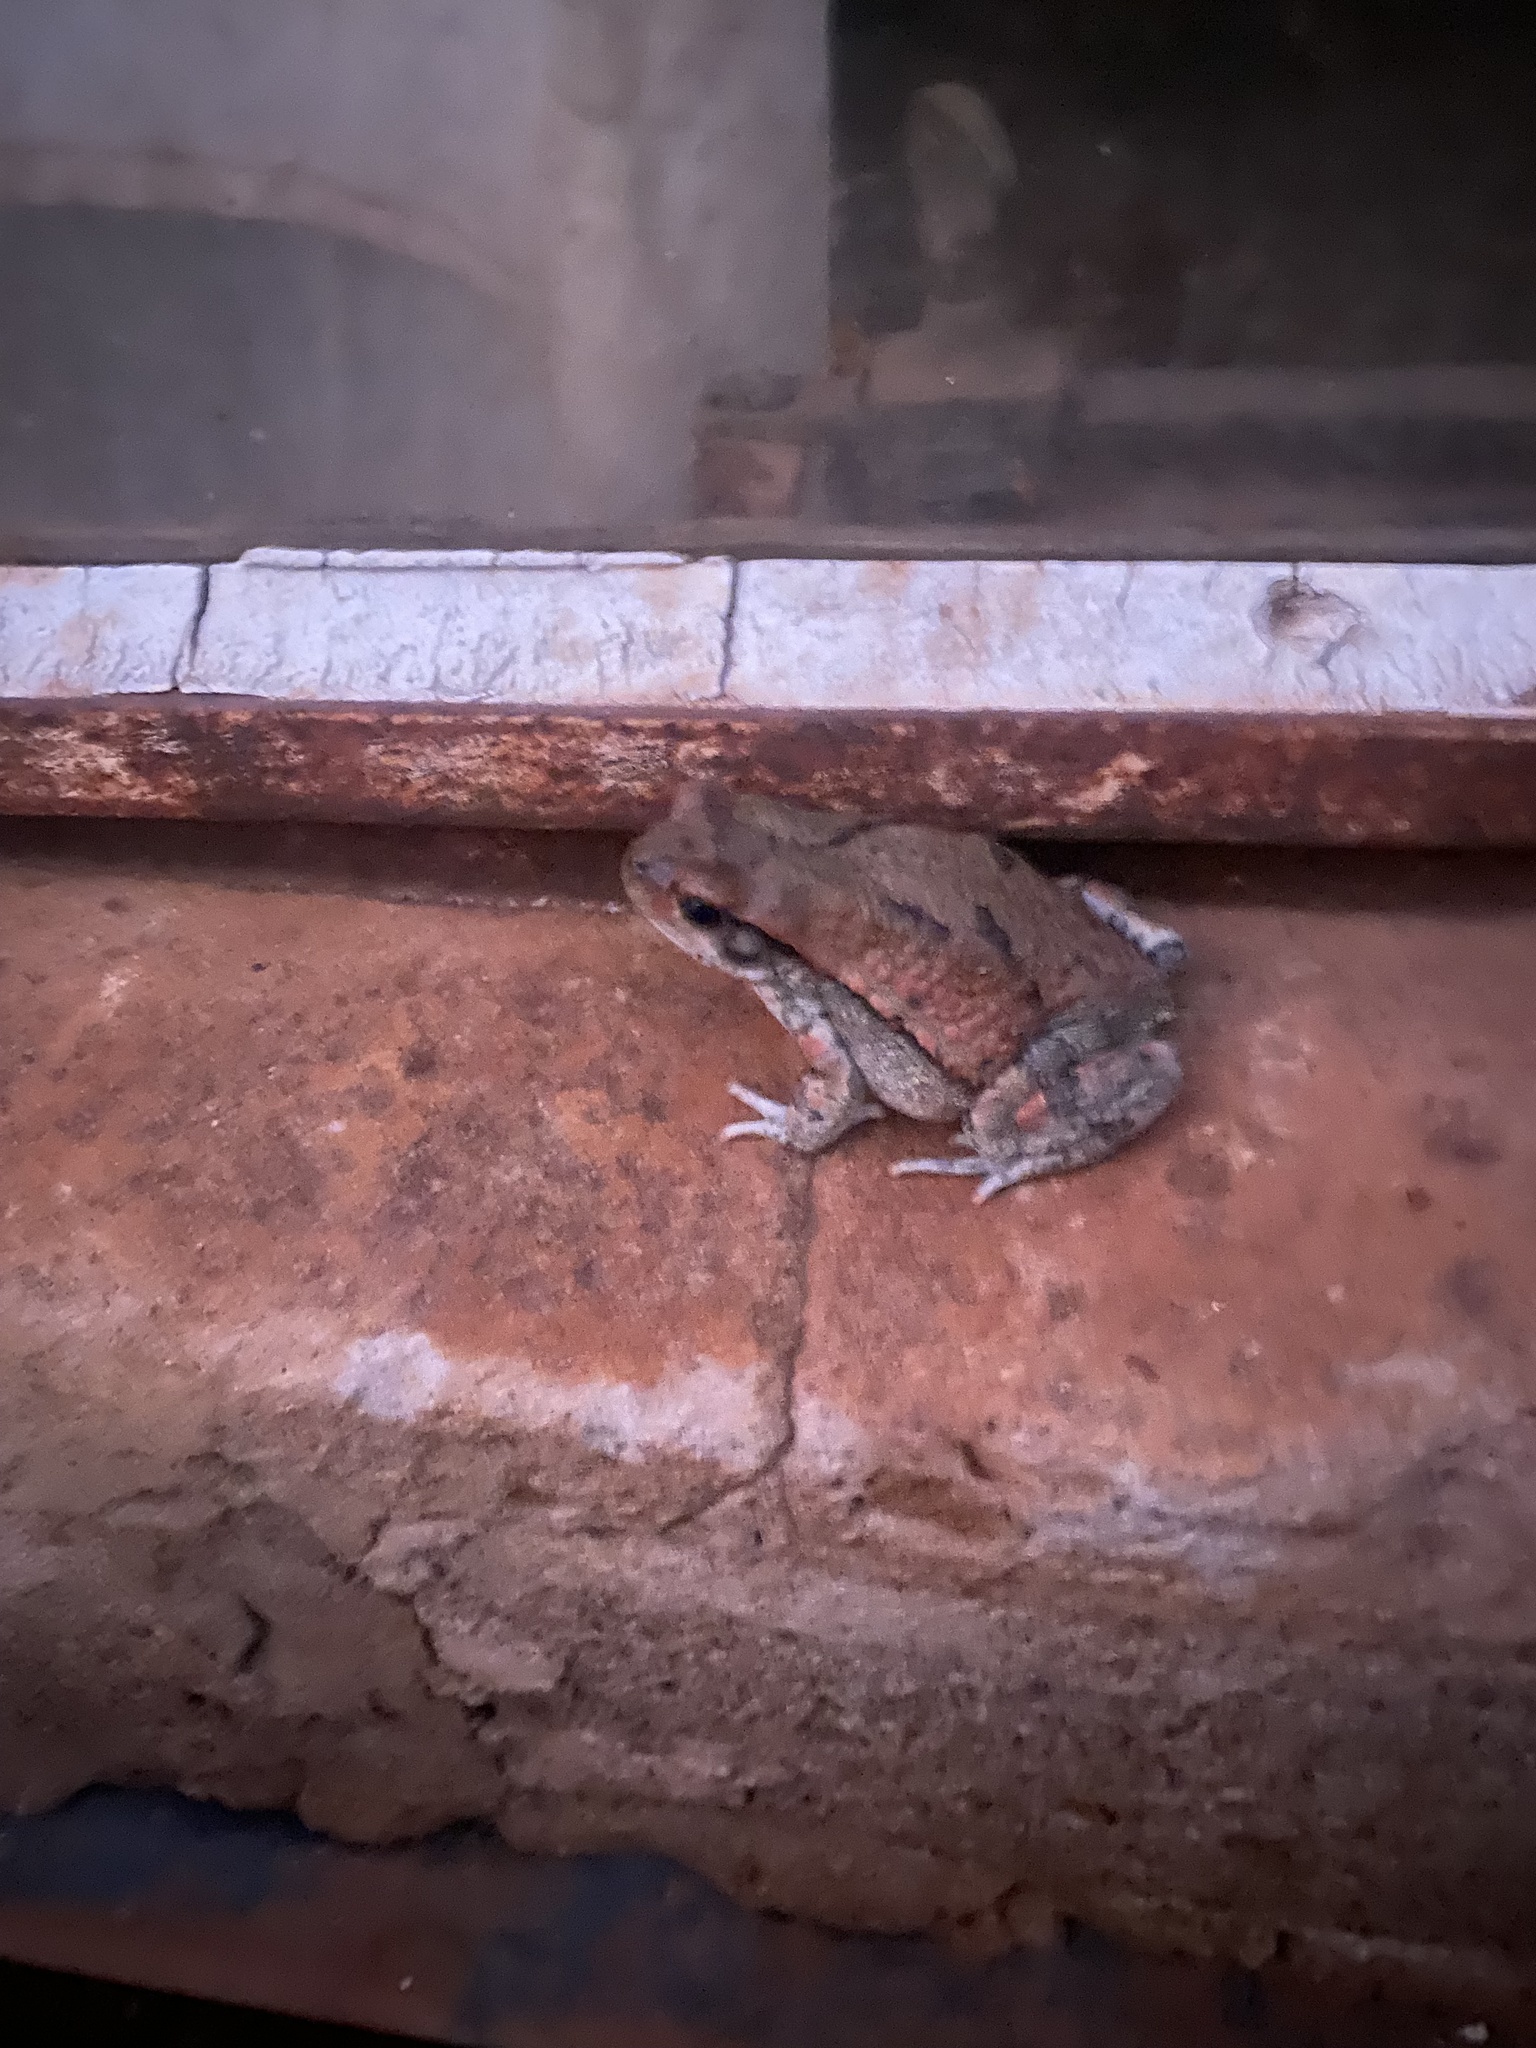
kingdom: Animalia
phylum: Chordata
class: Amphibia
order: Anura
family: Bufonidae
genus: Schismaderma
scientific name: Schismaderma carens
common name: African split-skin toad
